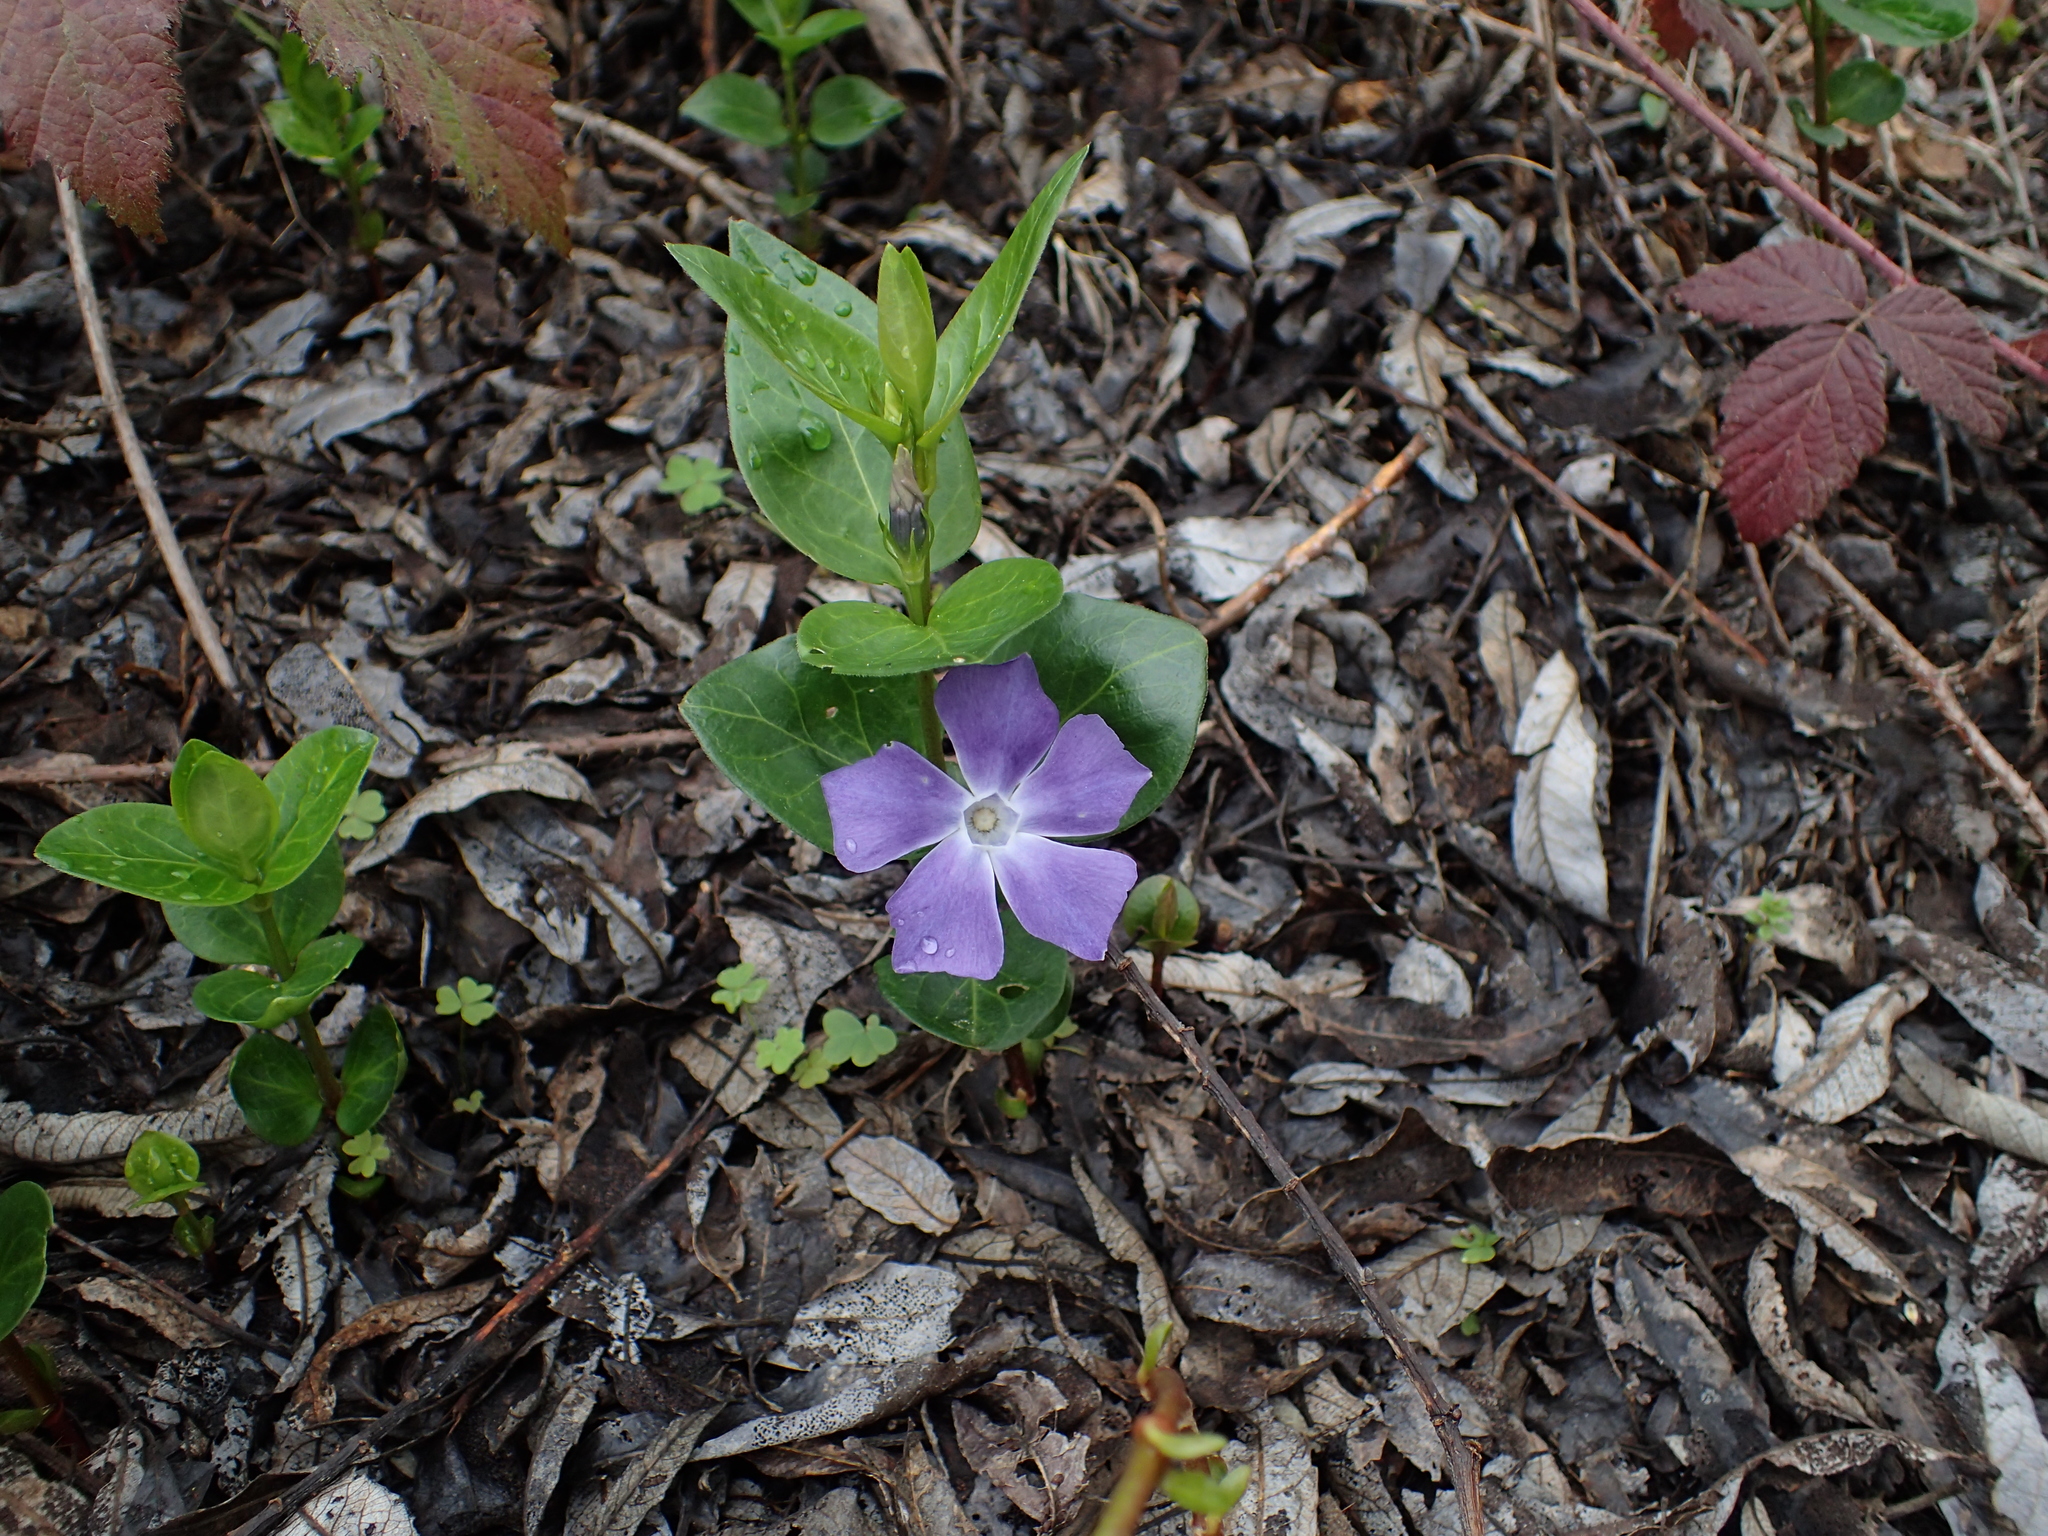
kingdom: Plantae
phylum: Tracheophyta
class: Magnoliopsida
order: Gentianales
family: Apocynaceae
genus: Vinca
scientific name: Vinca major
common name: Greater periwinkle
